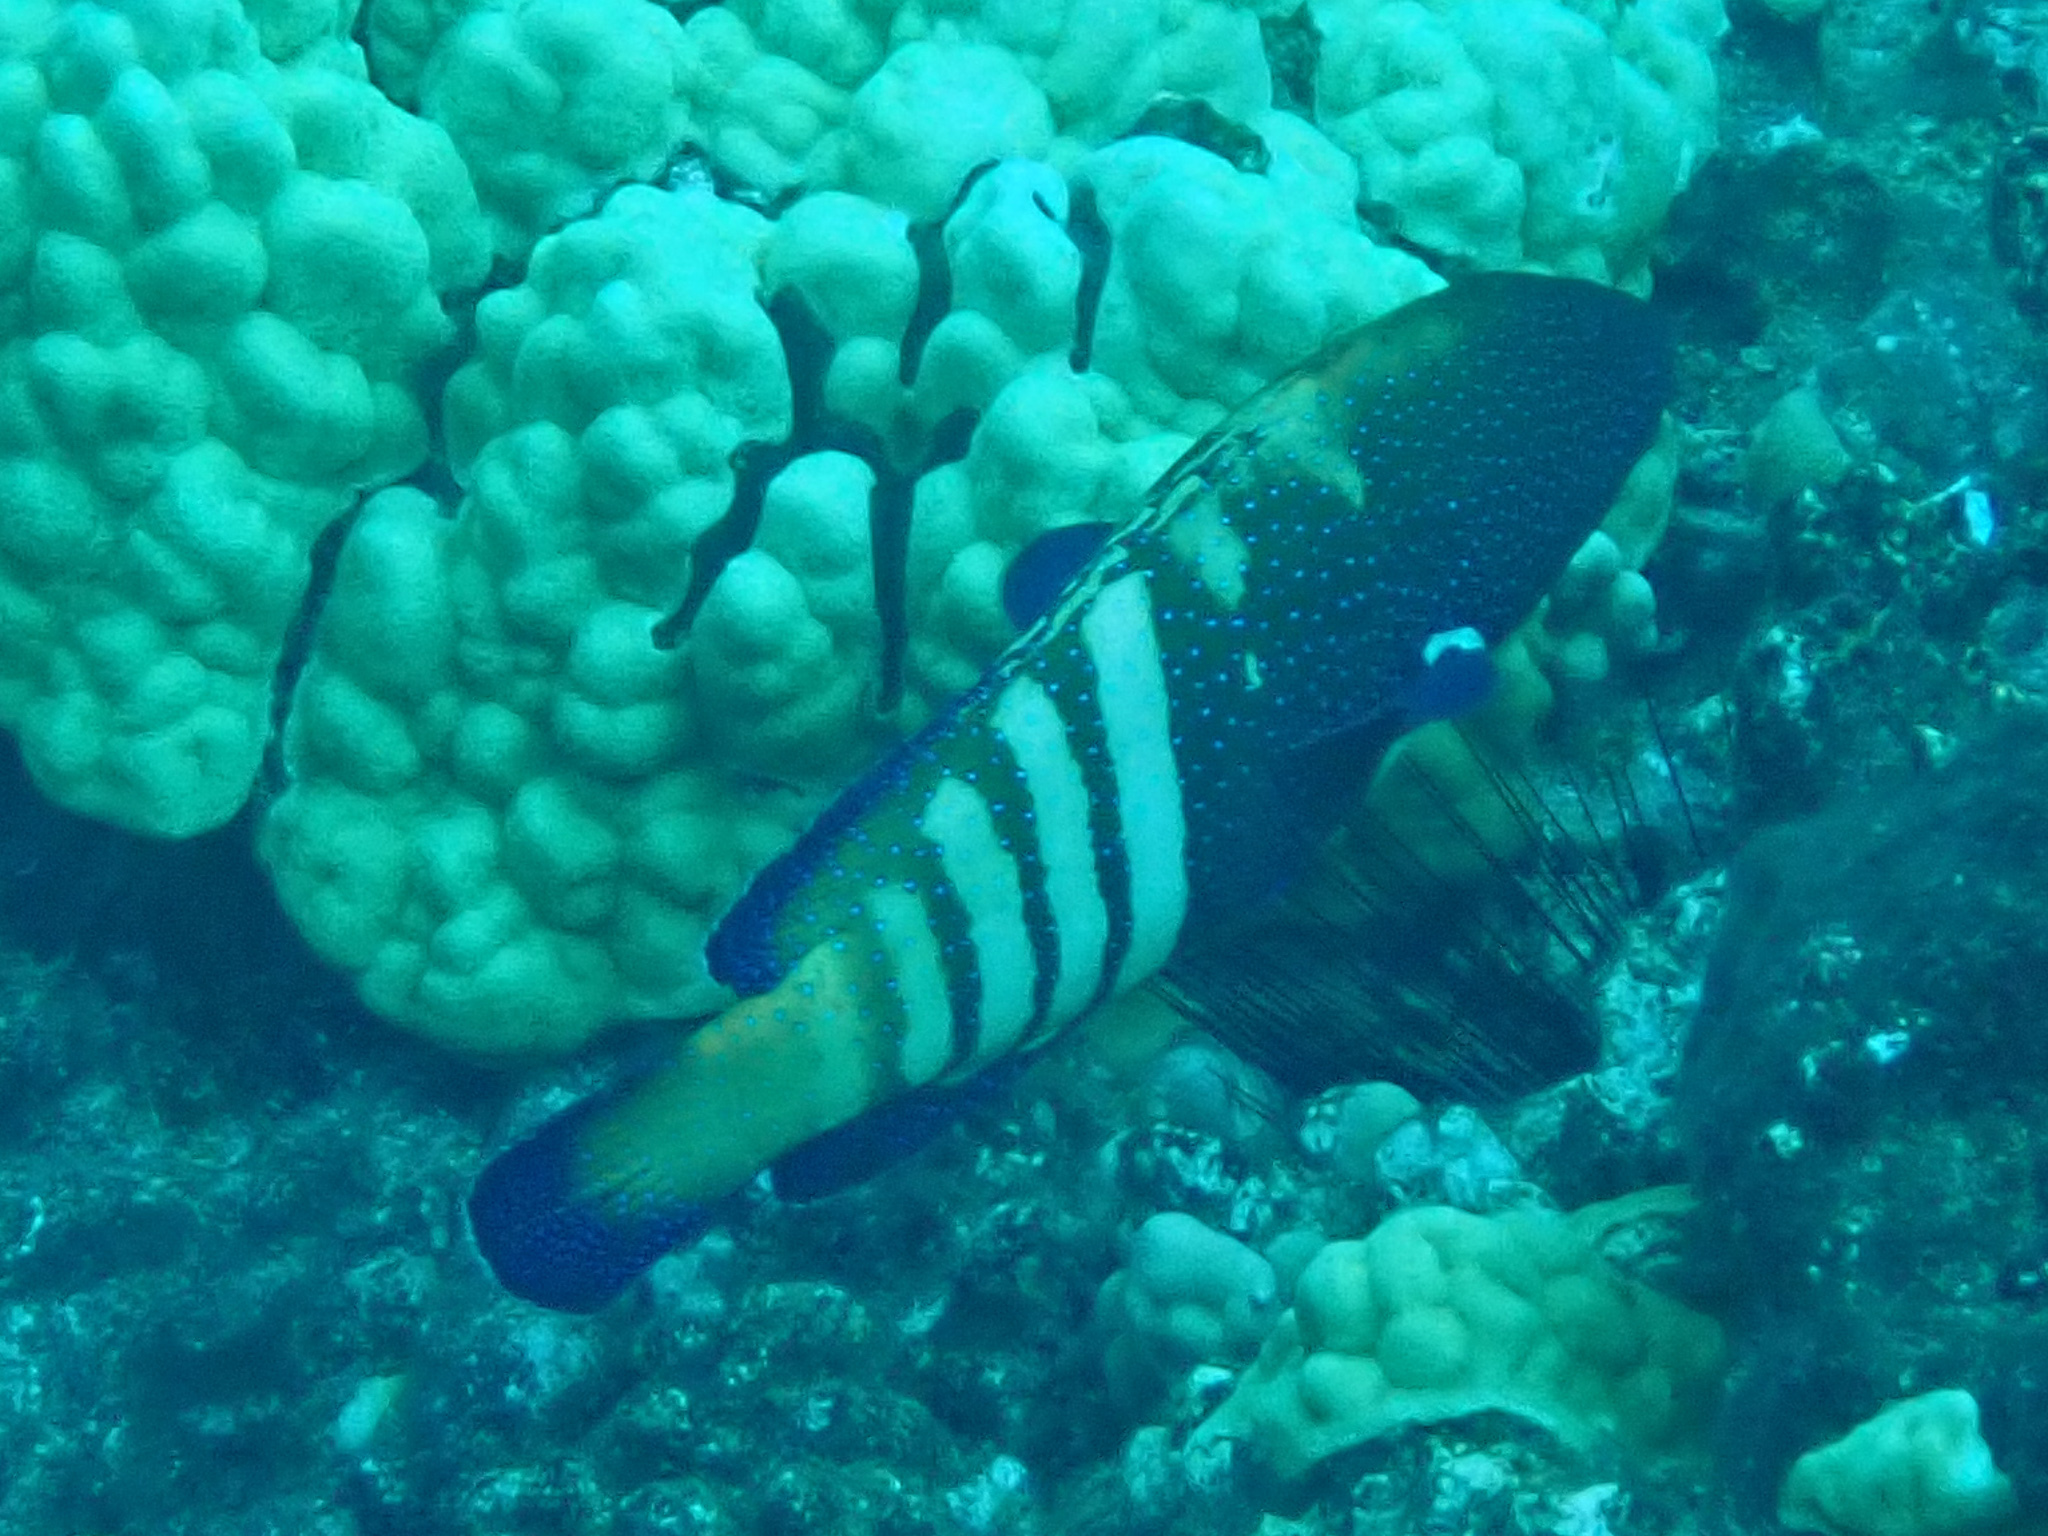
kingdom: Animalia
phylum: Chordata
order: Perciformes
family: Serranidae
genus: Cephalopholis
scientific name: Cephalopholis argus
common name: Peacock grouper
